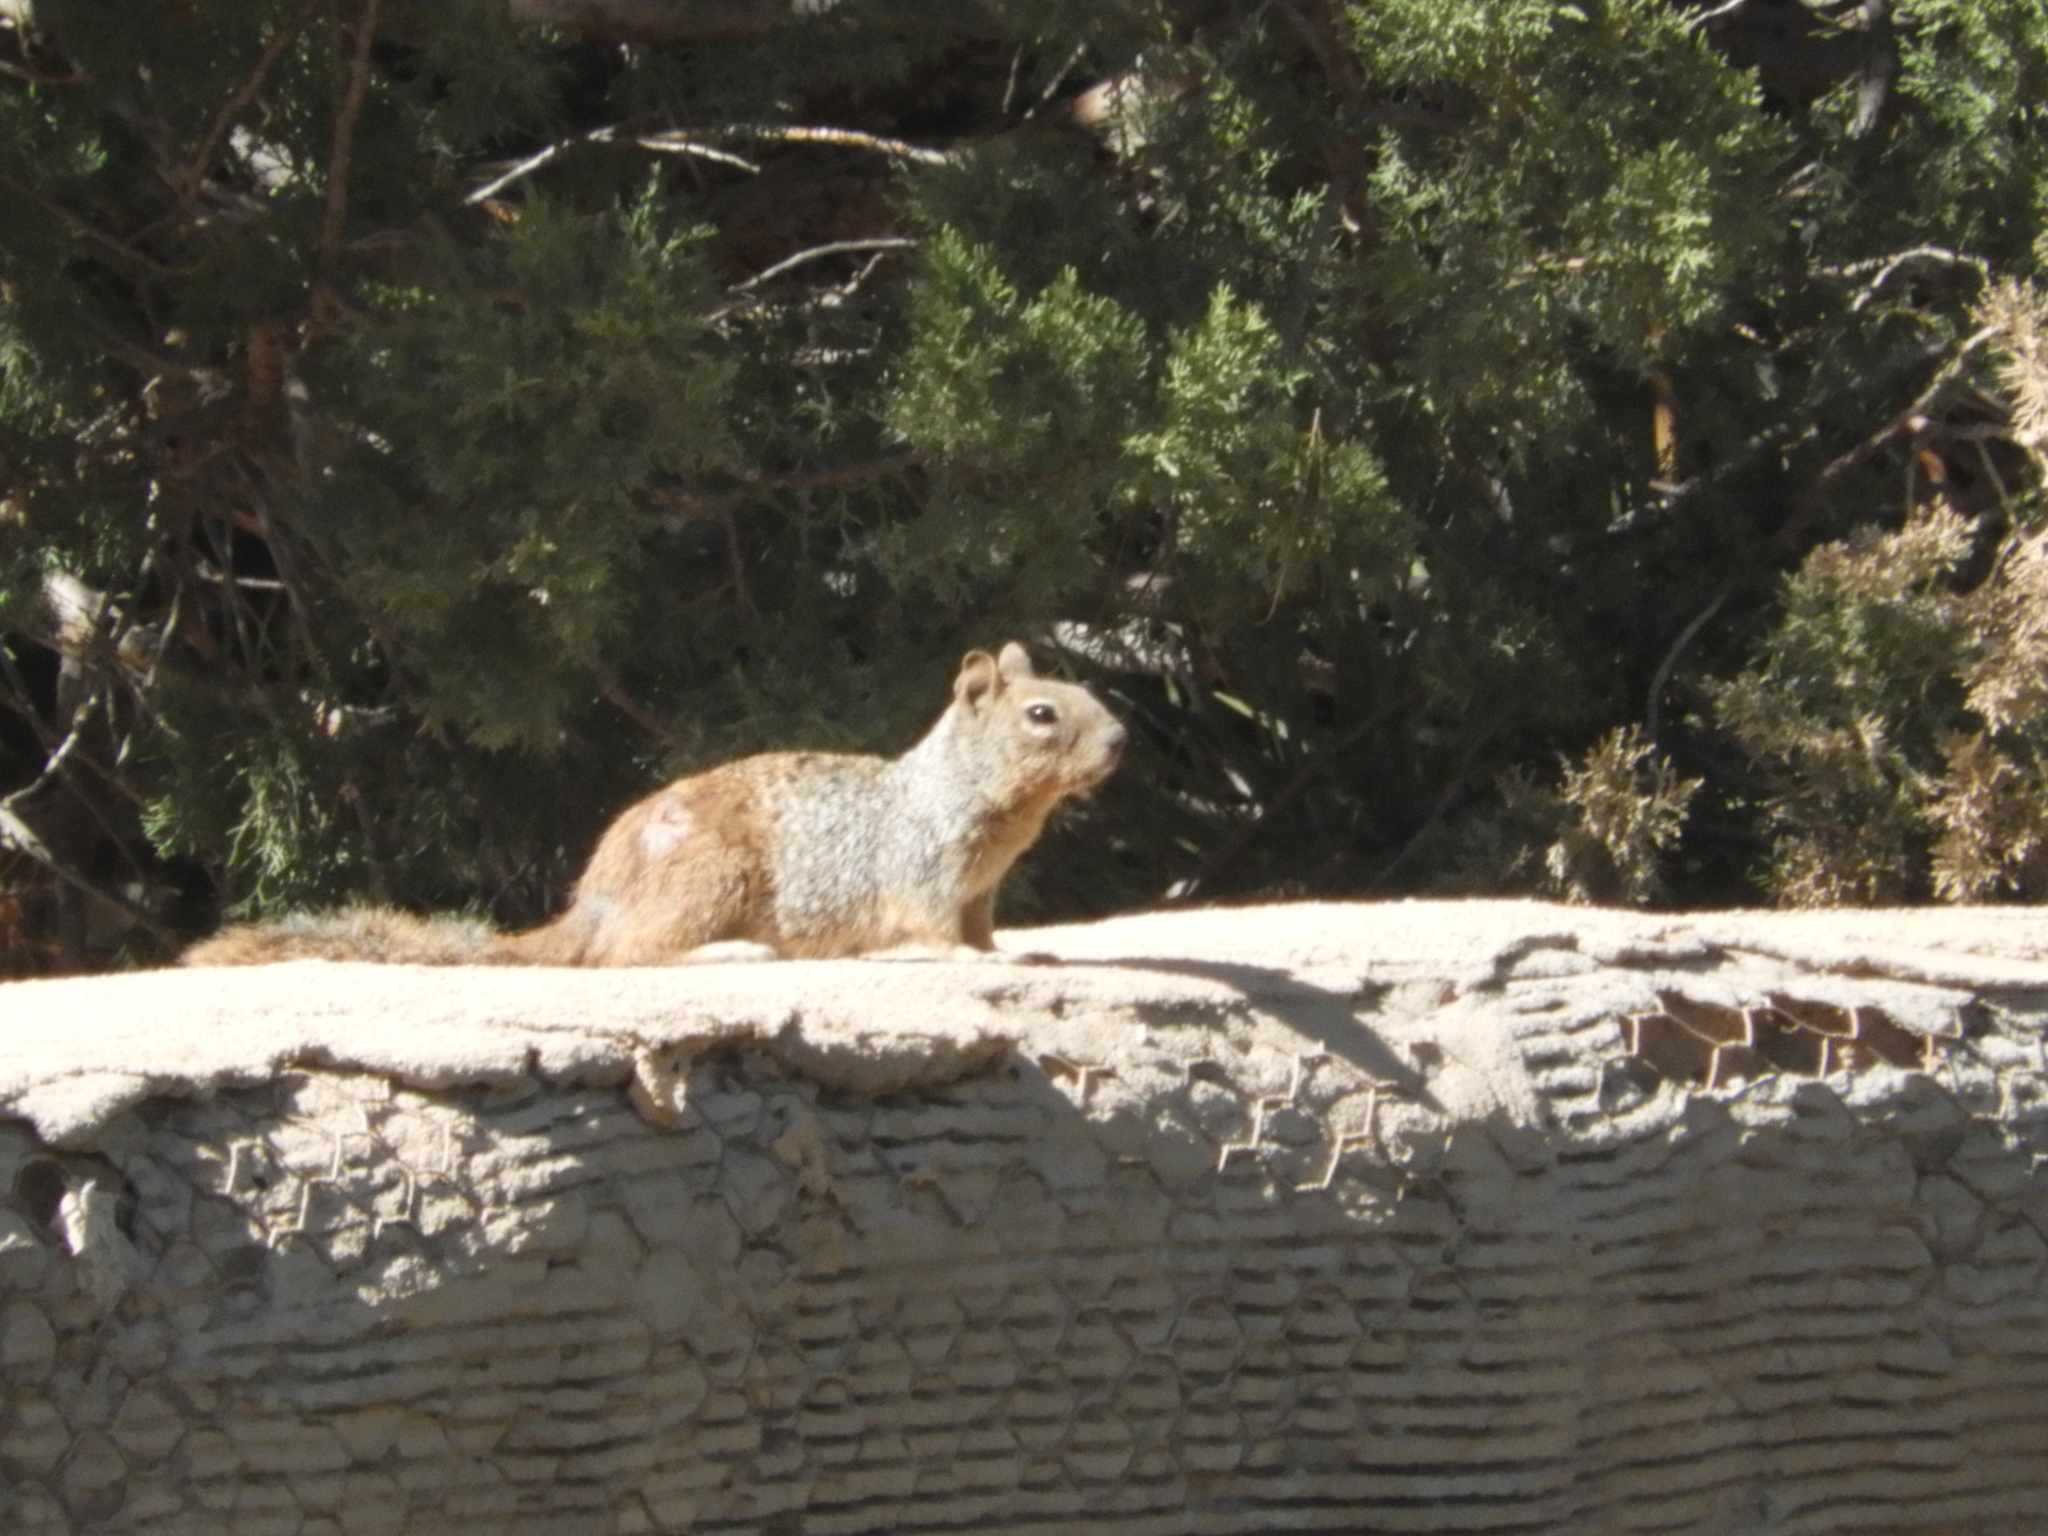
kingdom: Animalia
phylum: Chordata
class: Mammalia
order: Rodentia
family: Sciuridae
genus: Otospermophilus
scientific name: Otospermophilus variegatus
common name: Rock squirrel
